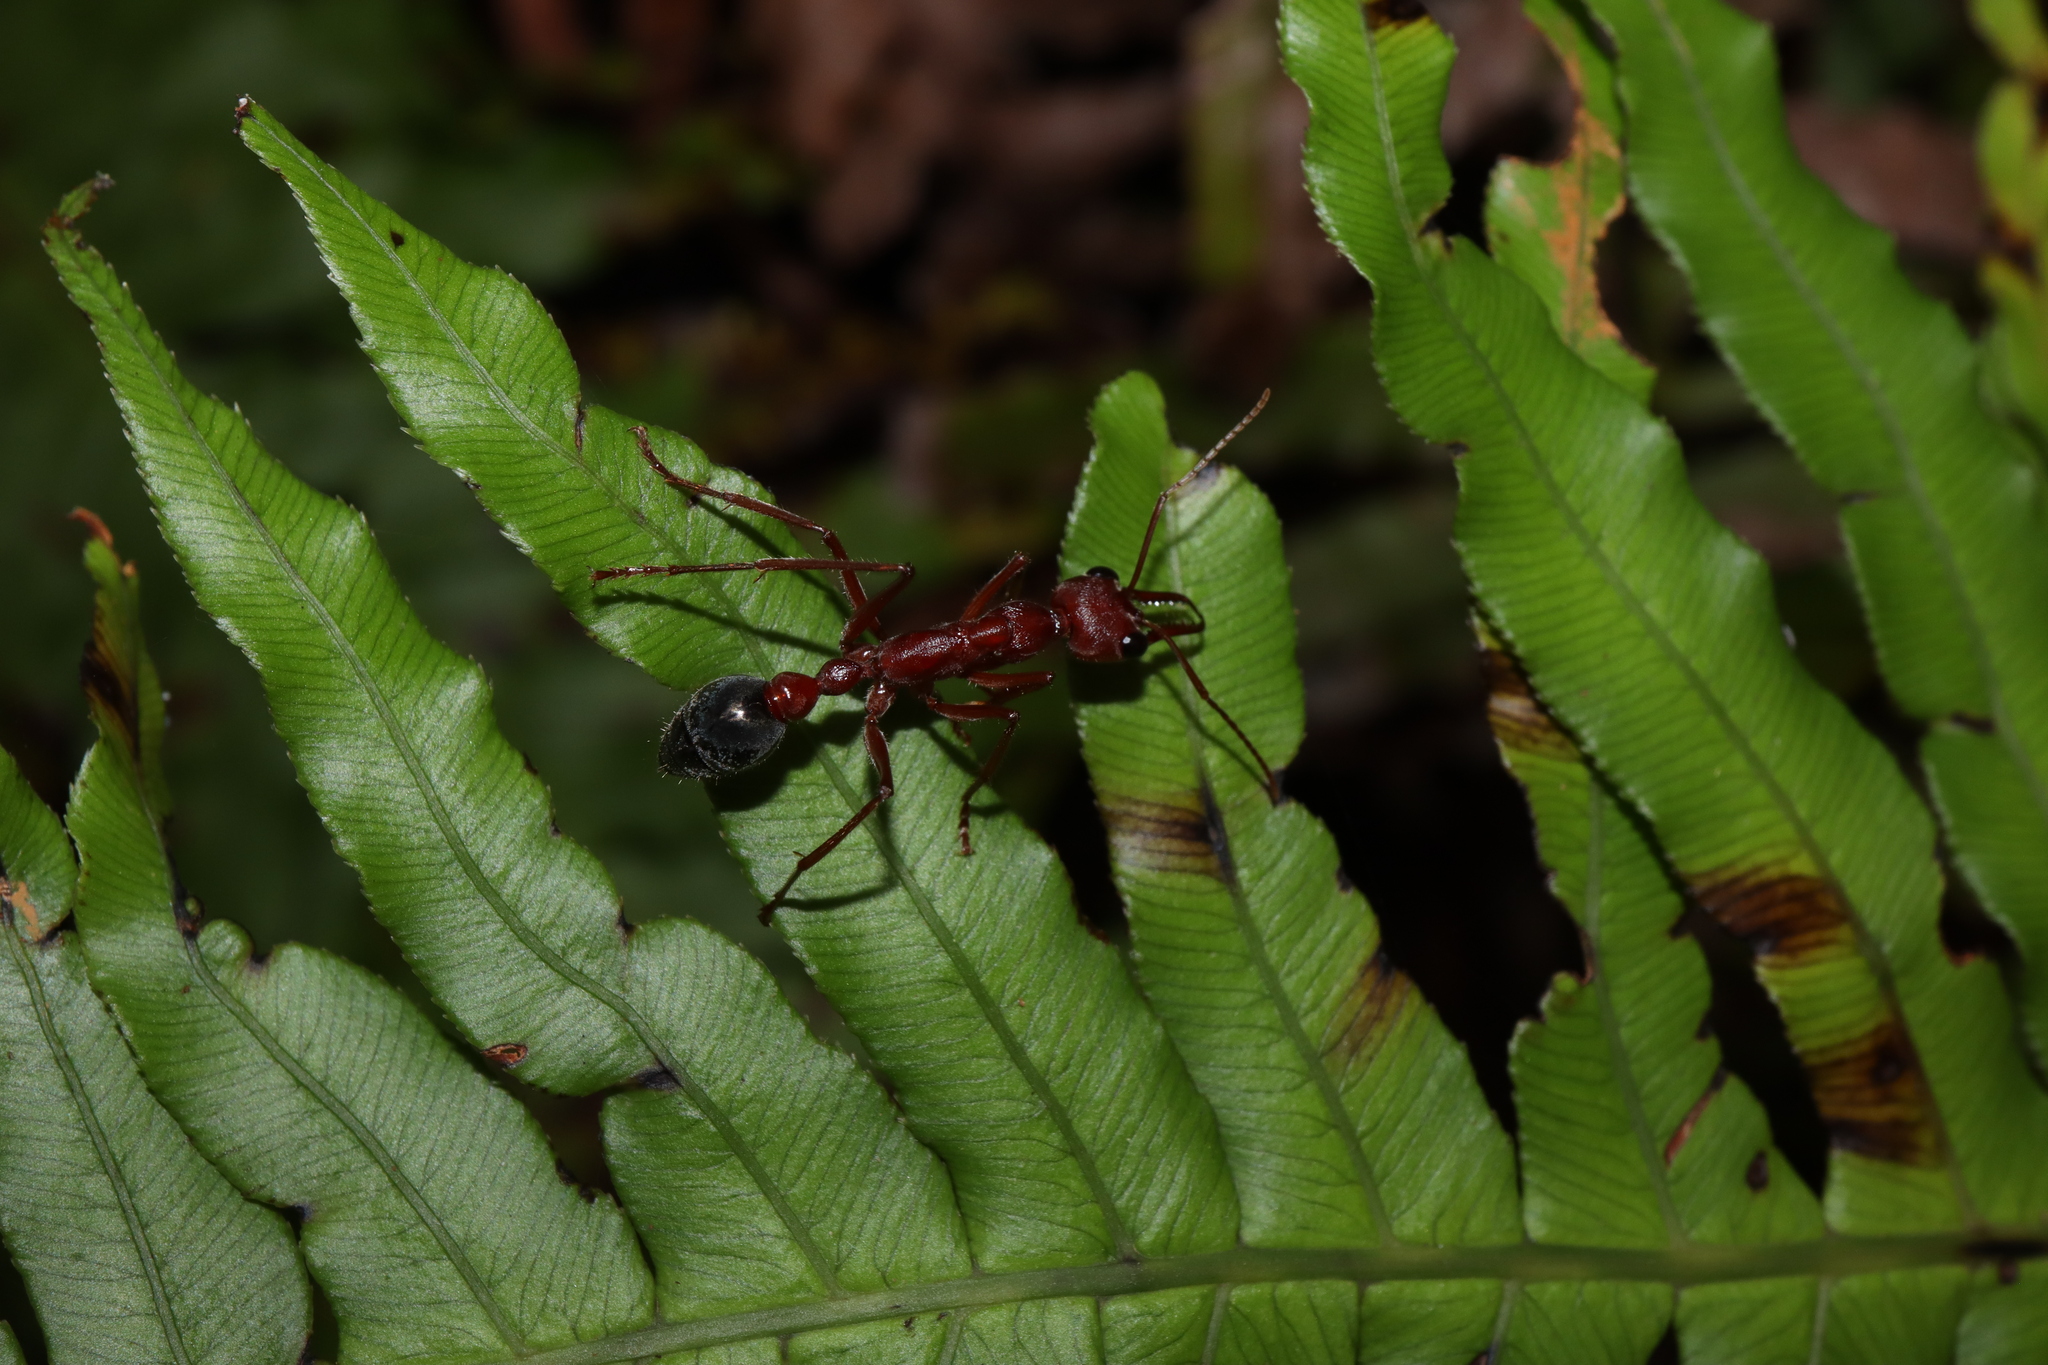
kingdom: Animalia
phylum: Arthropoda
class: Insecta
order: Hymenoptera
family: Formicidae
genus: Myrmecia
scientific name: Myrmecia brevinoda
